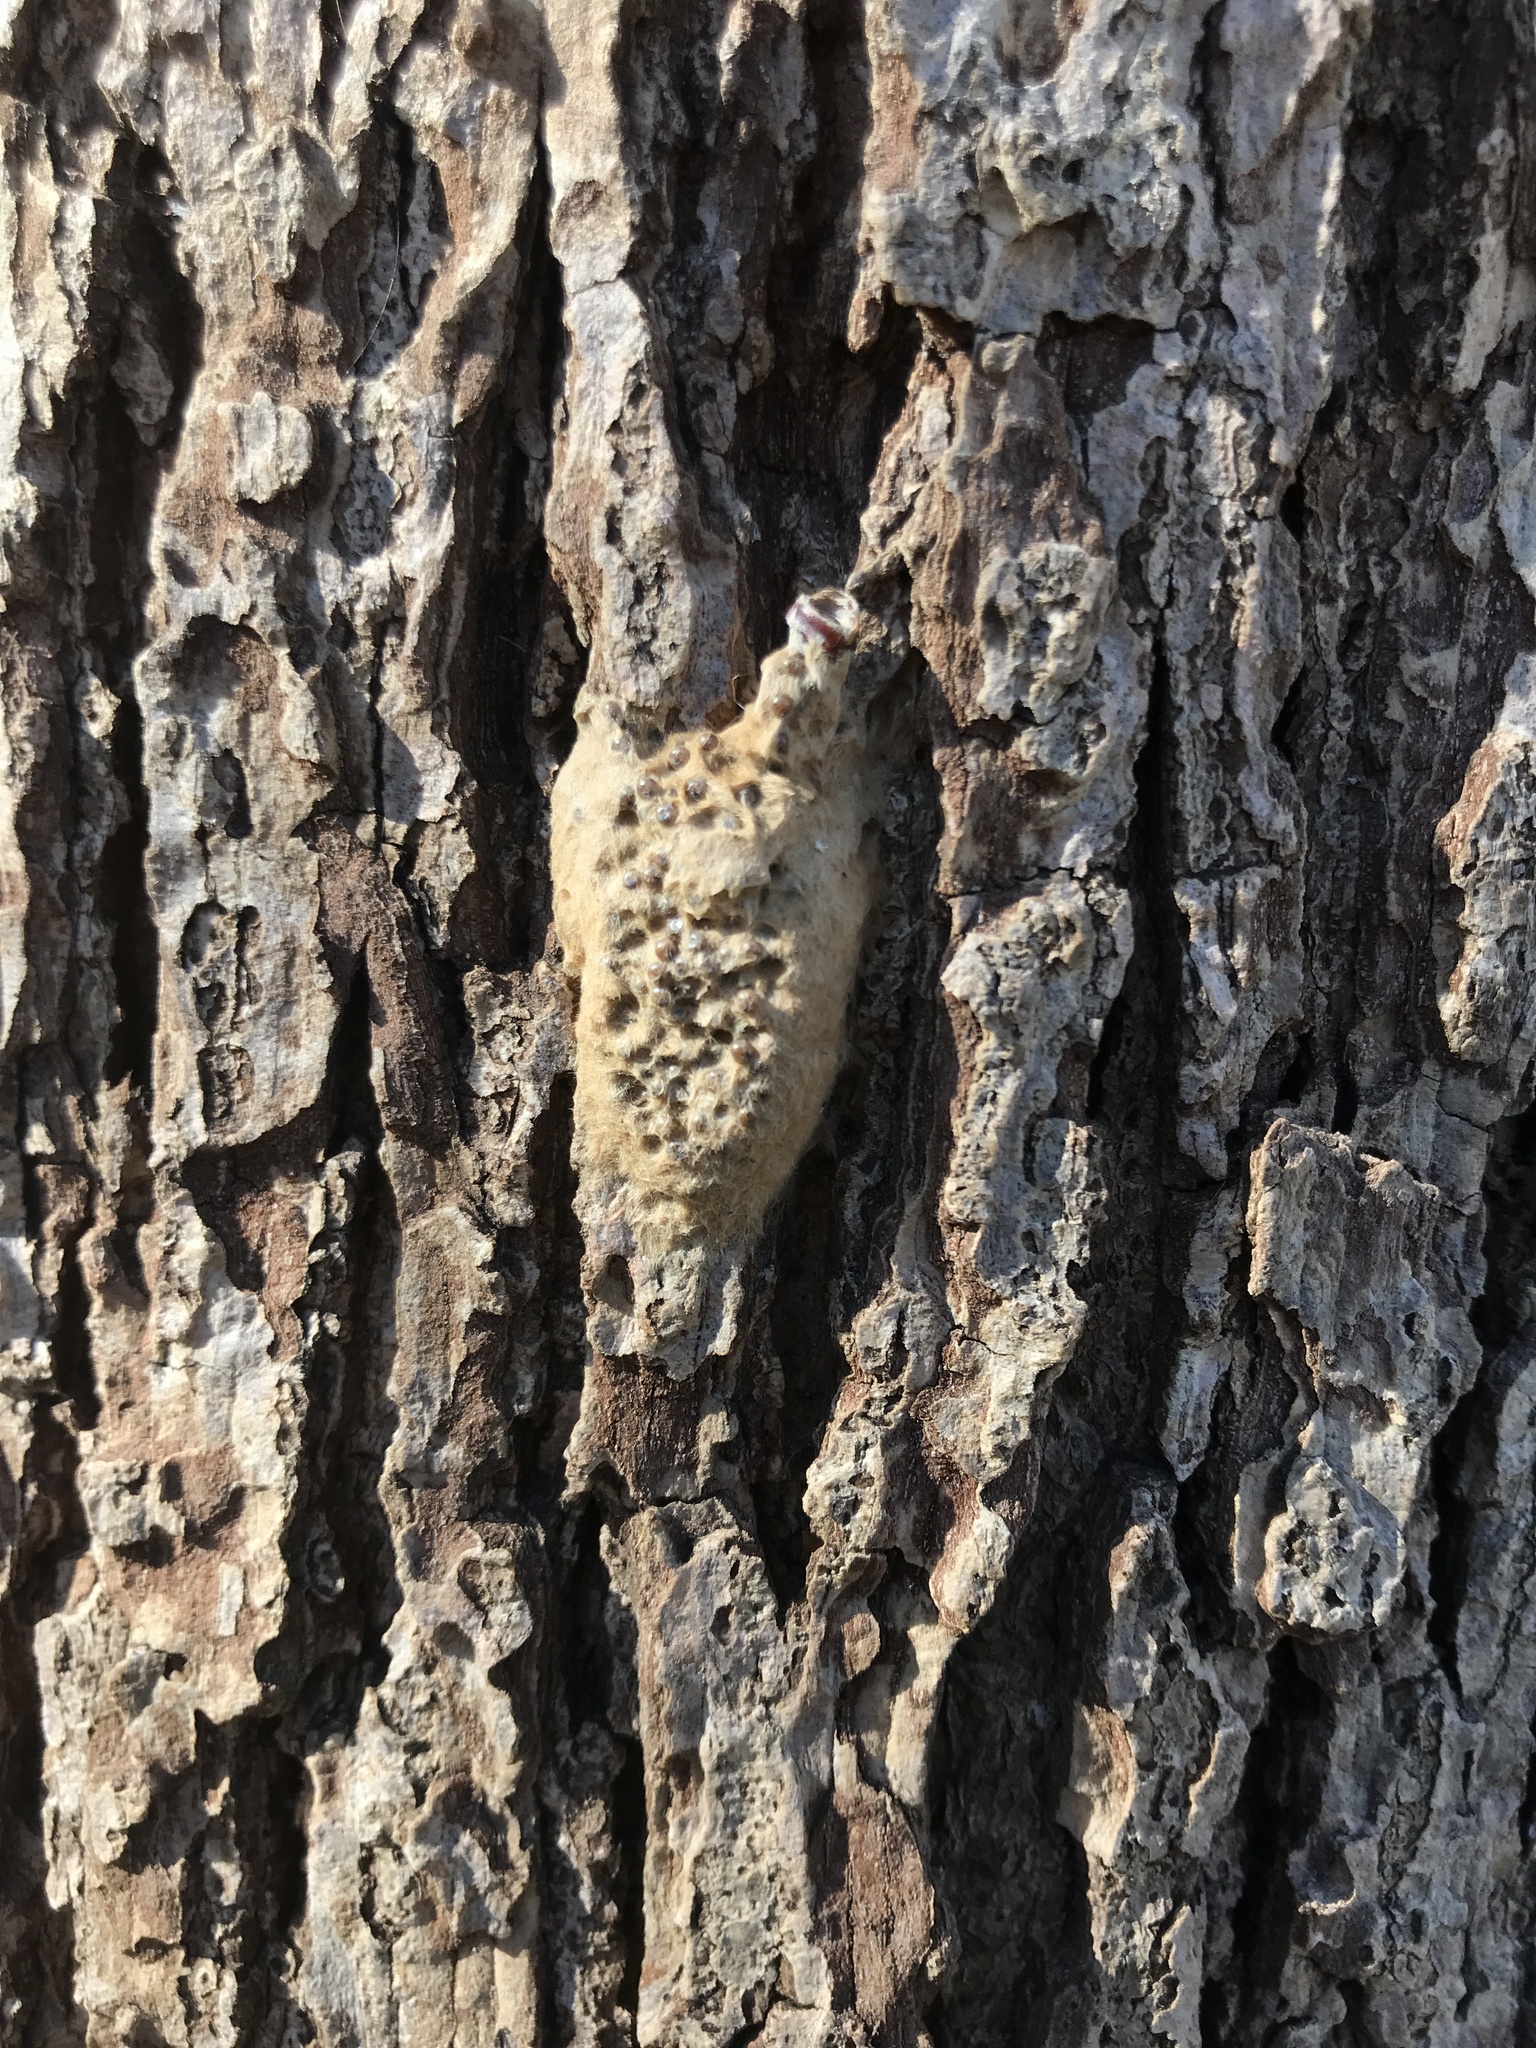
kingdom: Animalia
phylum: Arthropoda
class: Insecta
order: Lepidoptera
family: Erebidae
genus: Lymantria
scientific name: Lymantria dispar
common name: Gypsy moth
